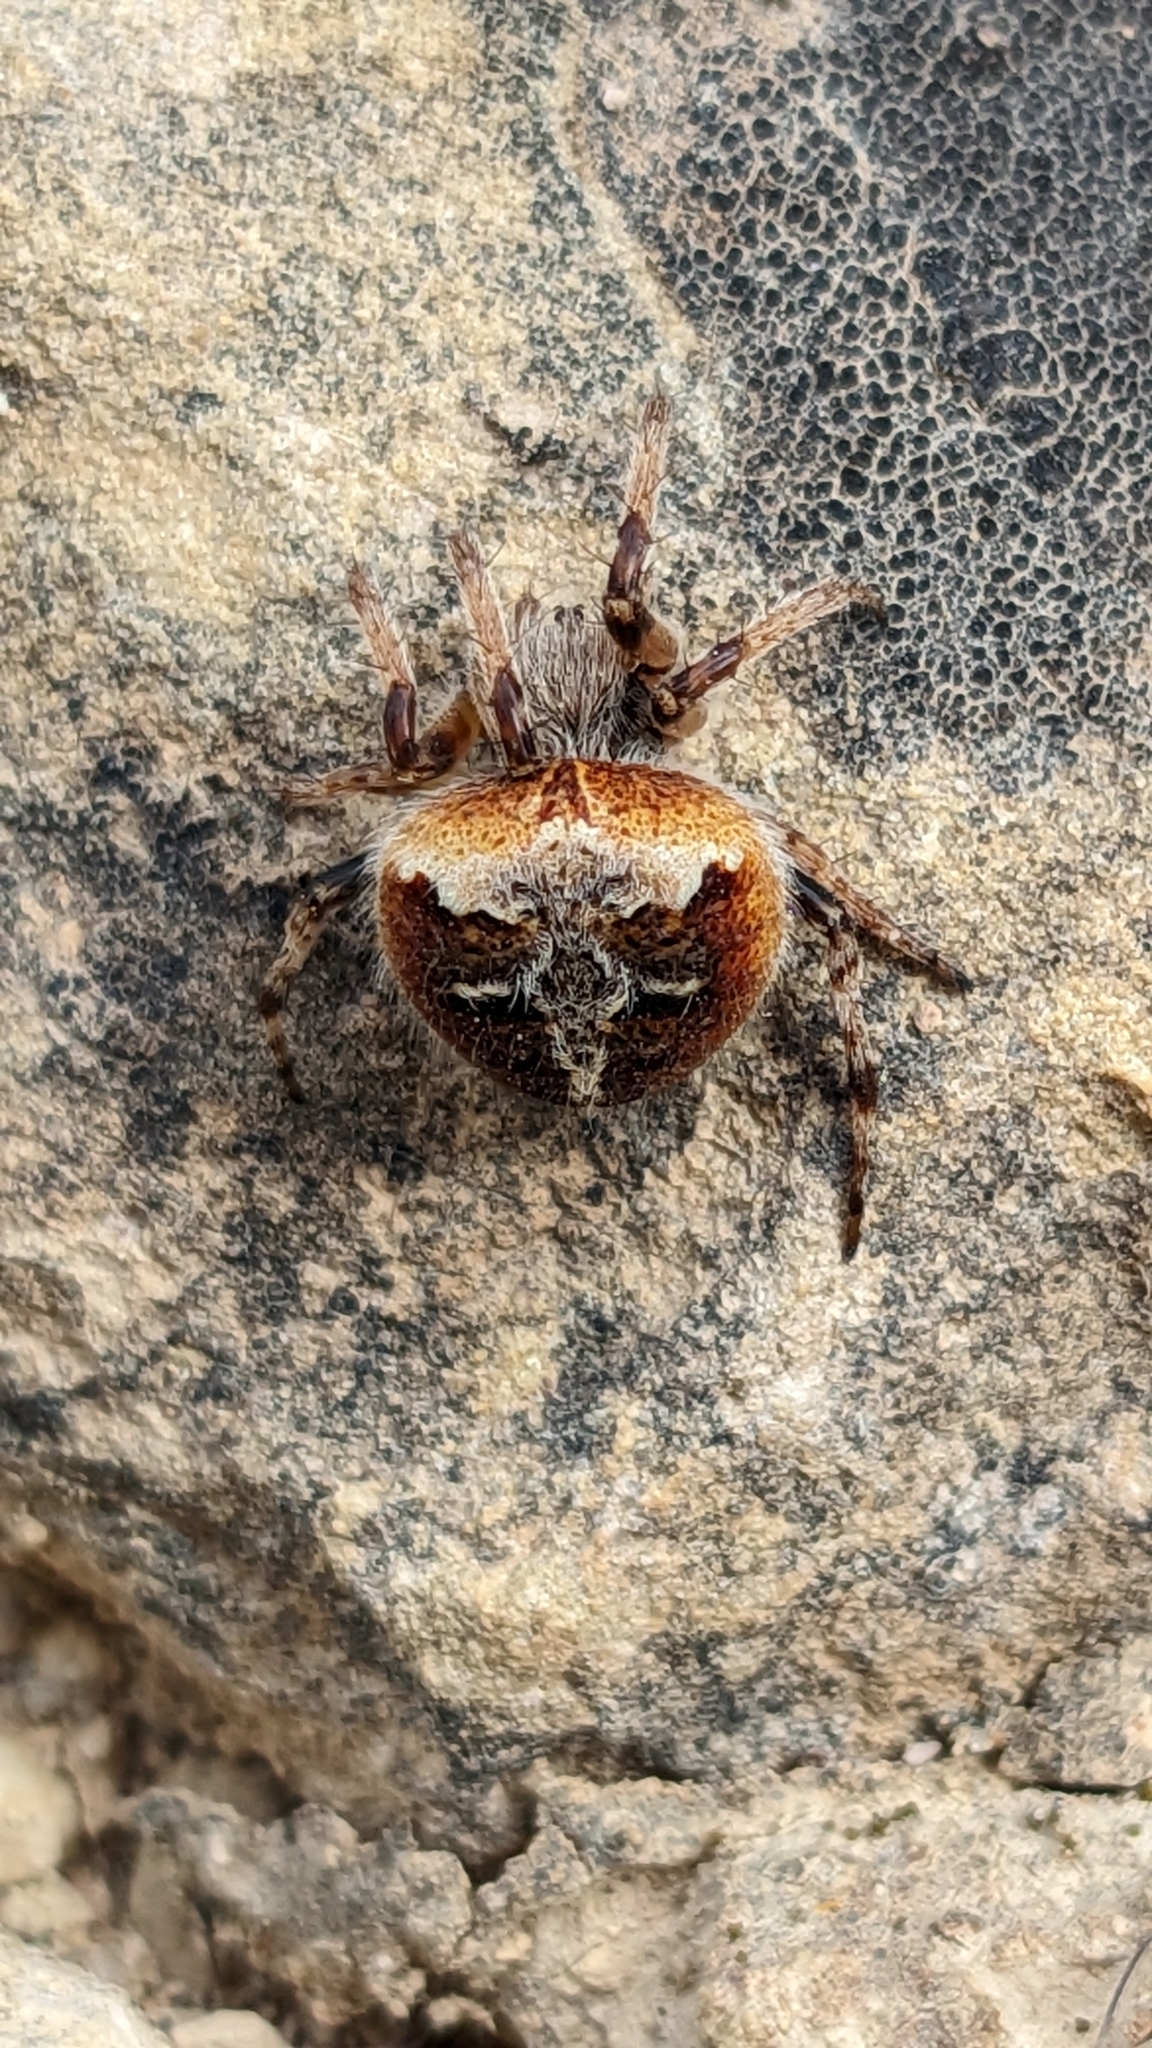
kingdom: Animalia
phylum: Arthropoda
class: Arachnida
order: Araneae
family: Araneidae
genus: Agalenatea
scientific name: Agalenatea redii
